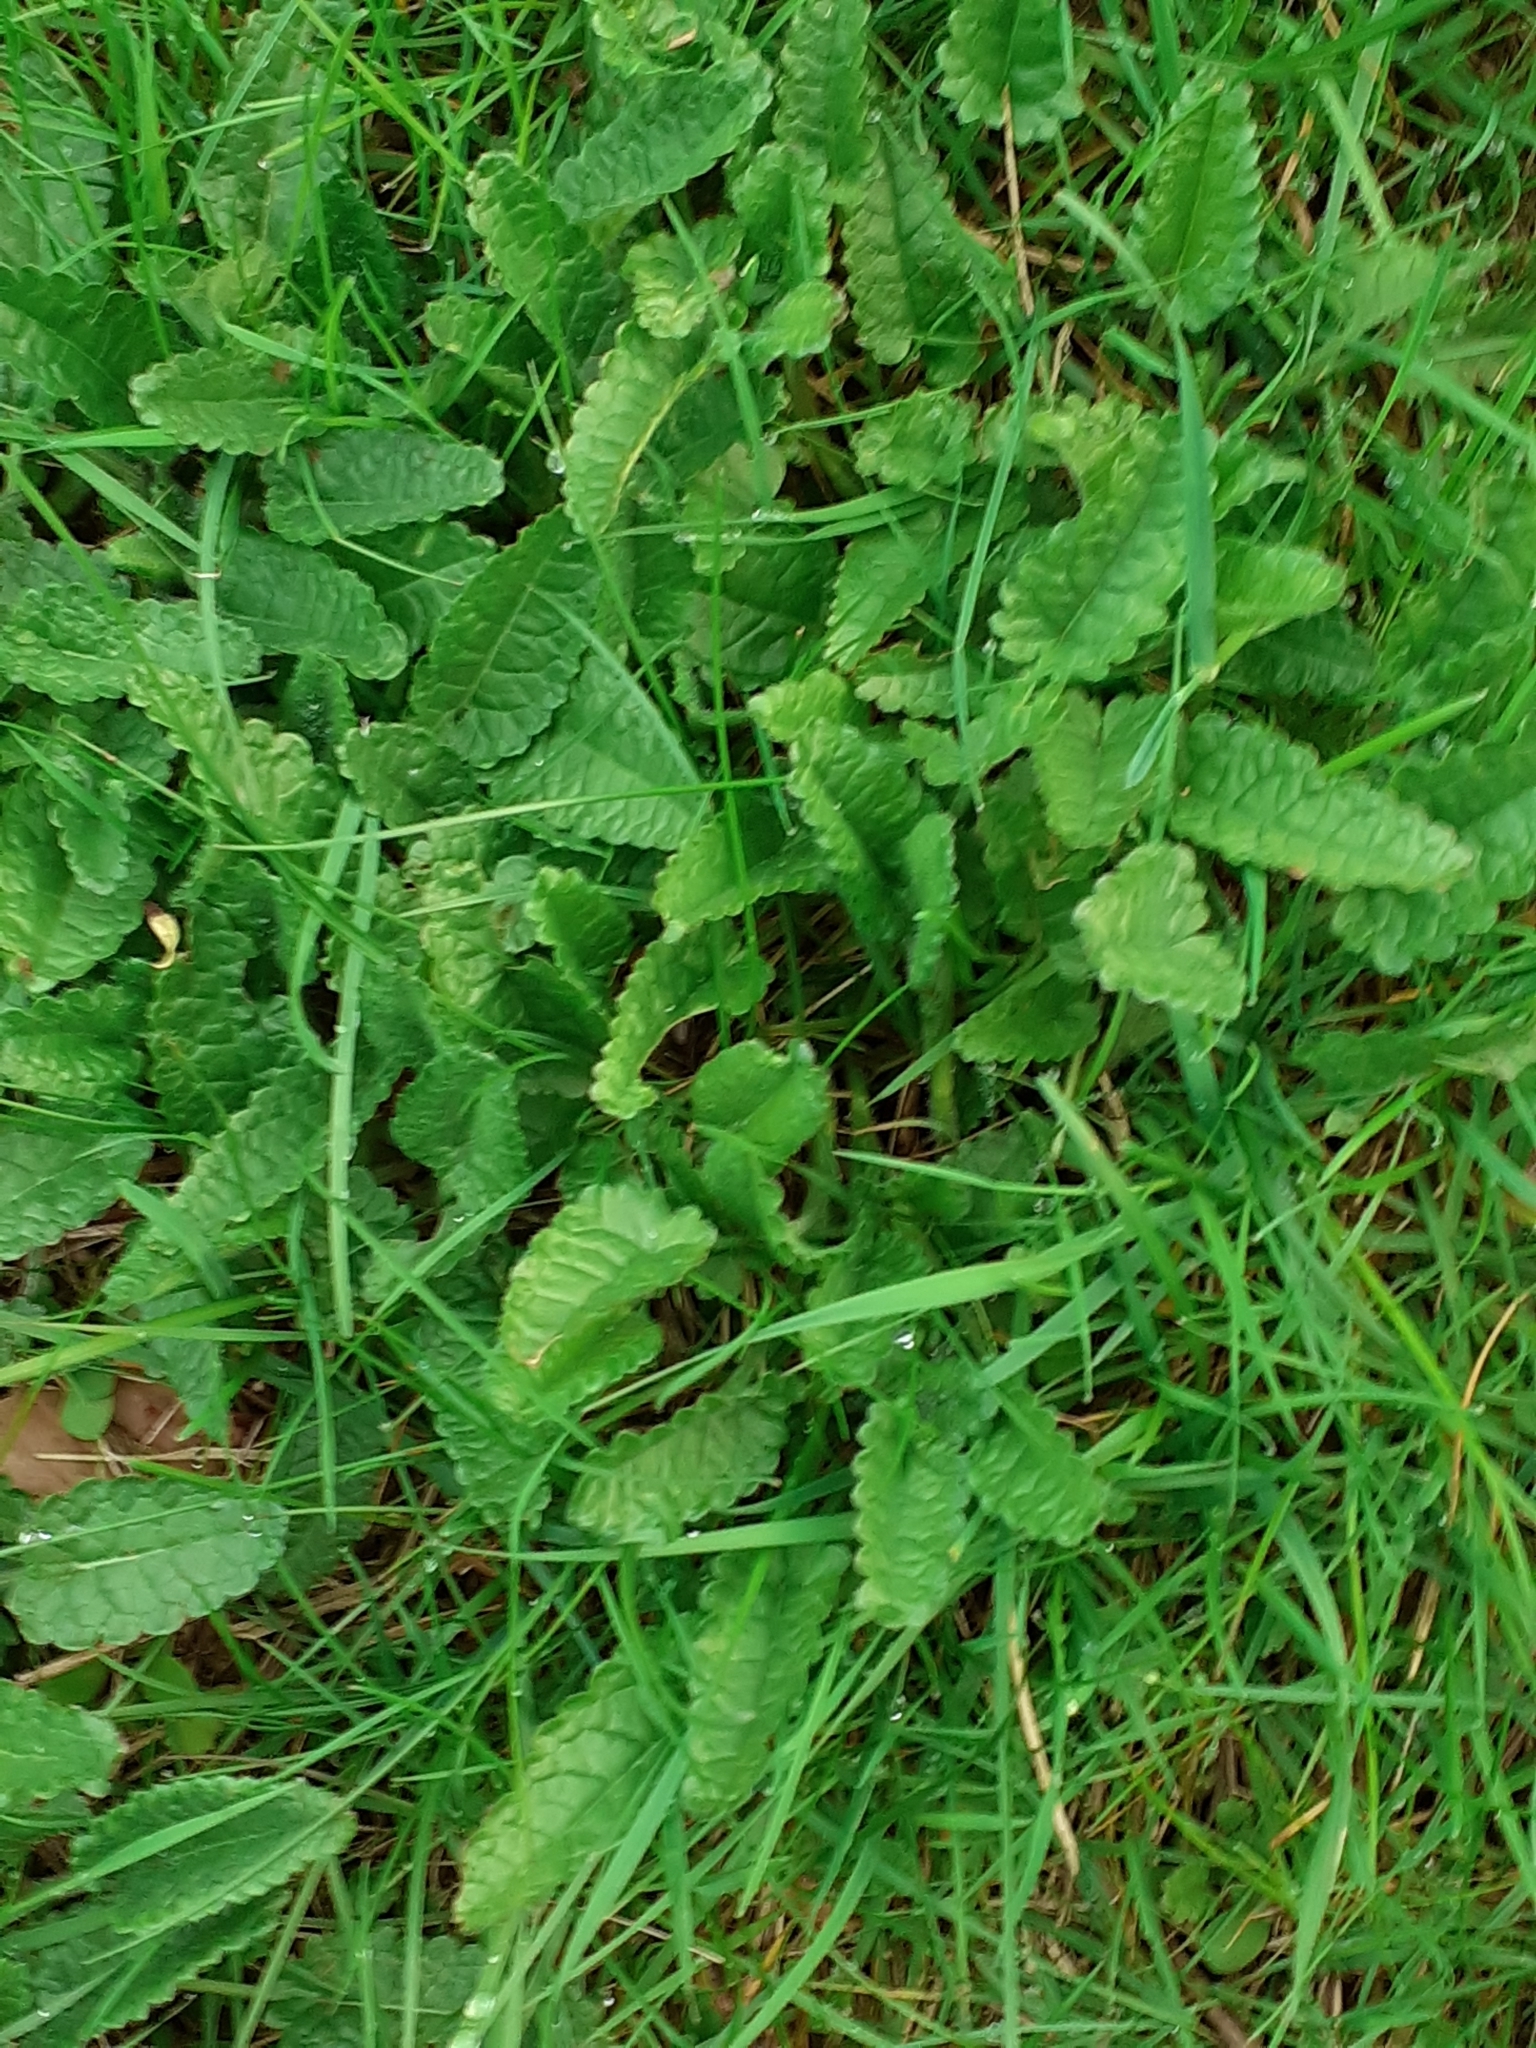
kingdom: Plantae
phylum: Tracheophyta
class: Magnoliopsida
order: Lamiales
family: Lamiaceae
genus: Betonica
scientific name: Betonica officinalis
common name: Bishop's-wort
